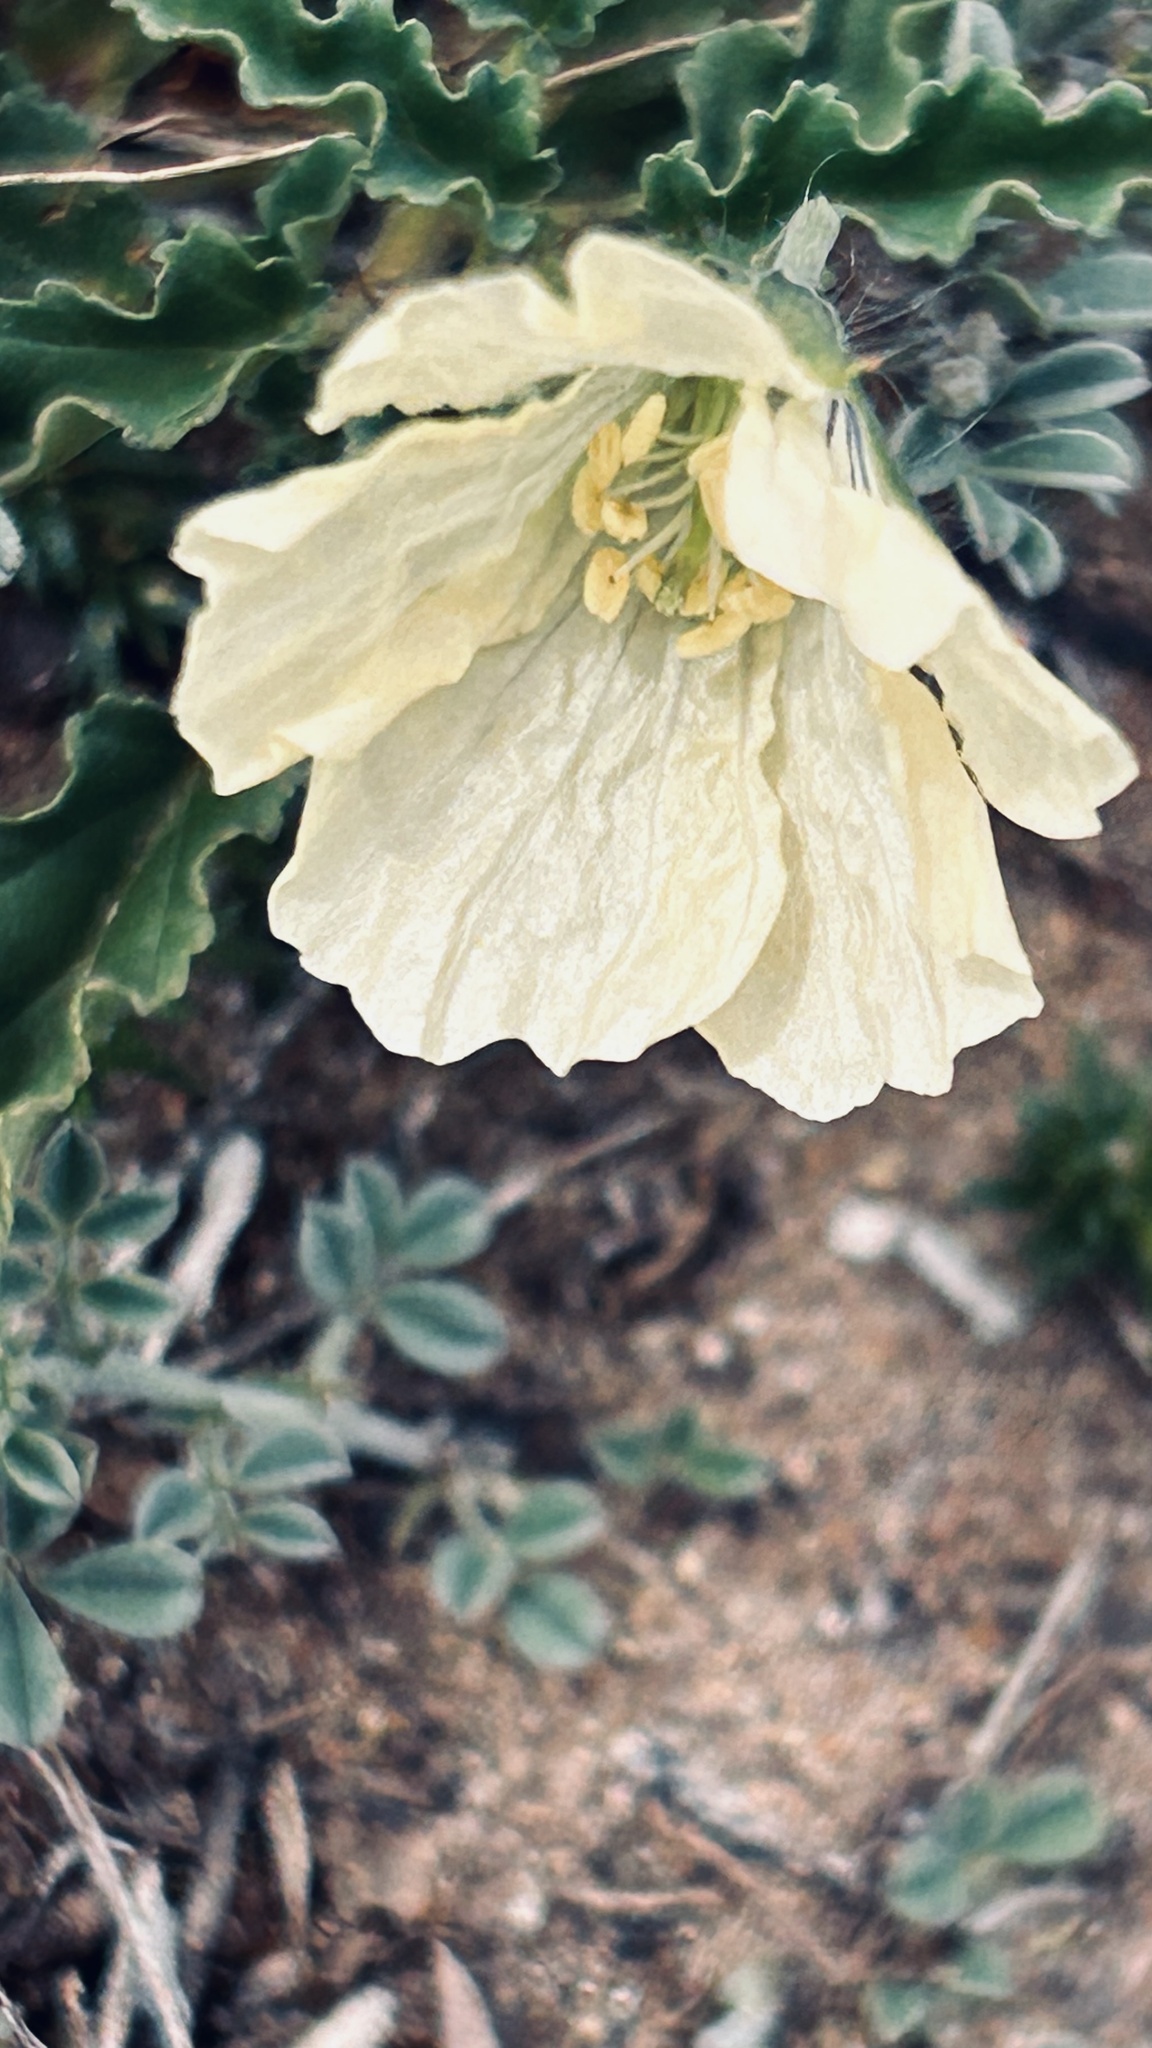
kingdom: Plantae
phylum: Tracheophyta
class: Magnoliopsida
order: Geraniales
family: Geraniaceae
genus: Monsonia
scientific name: Monsonia emarginata
